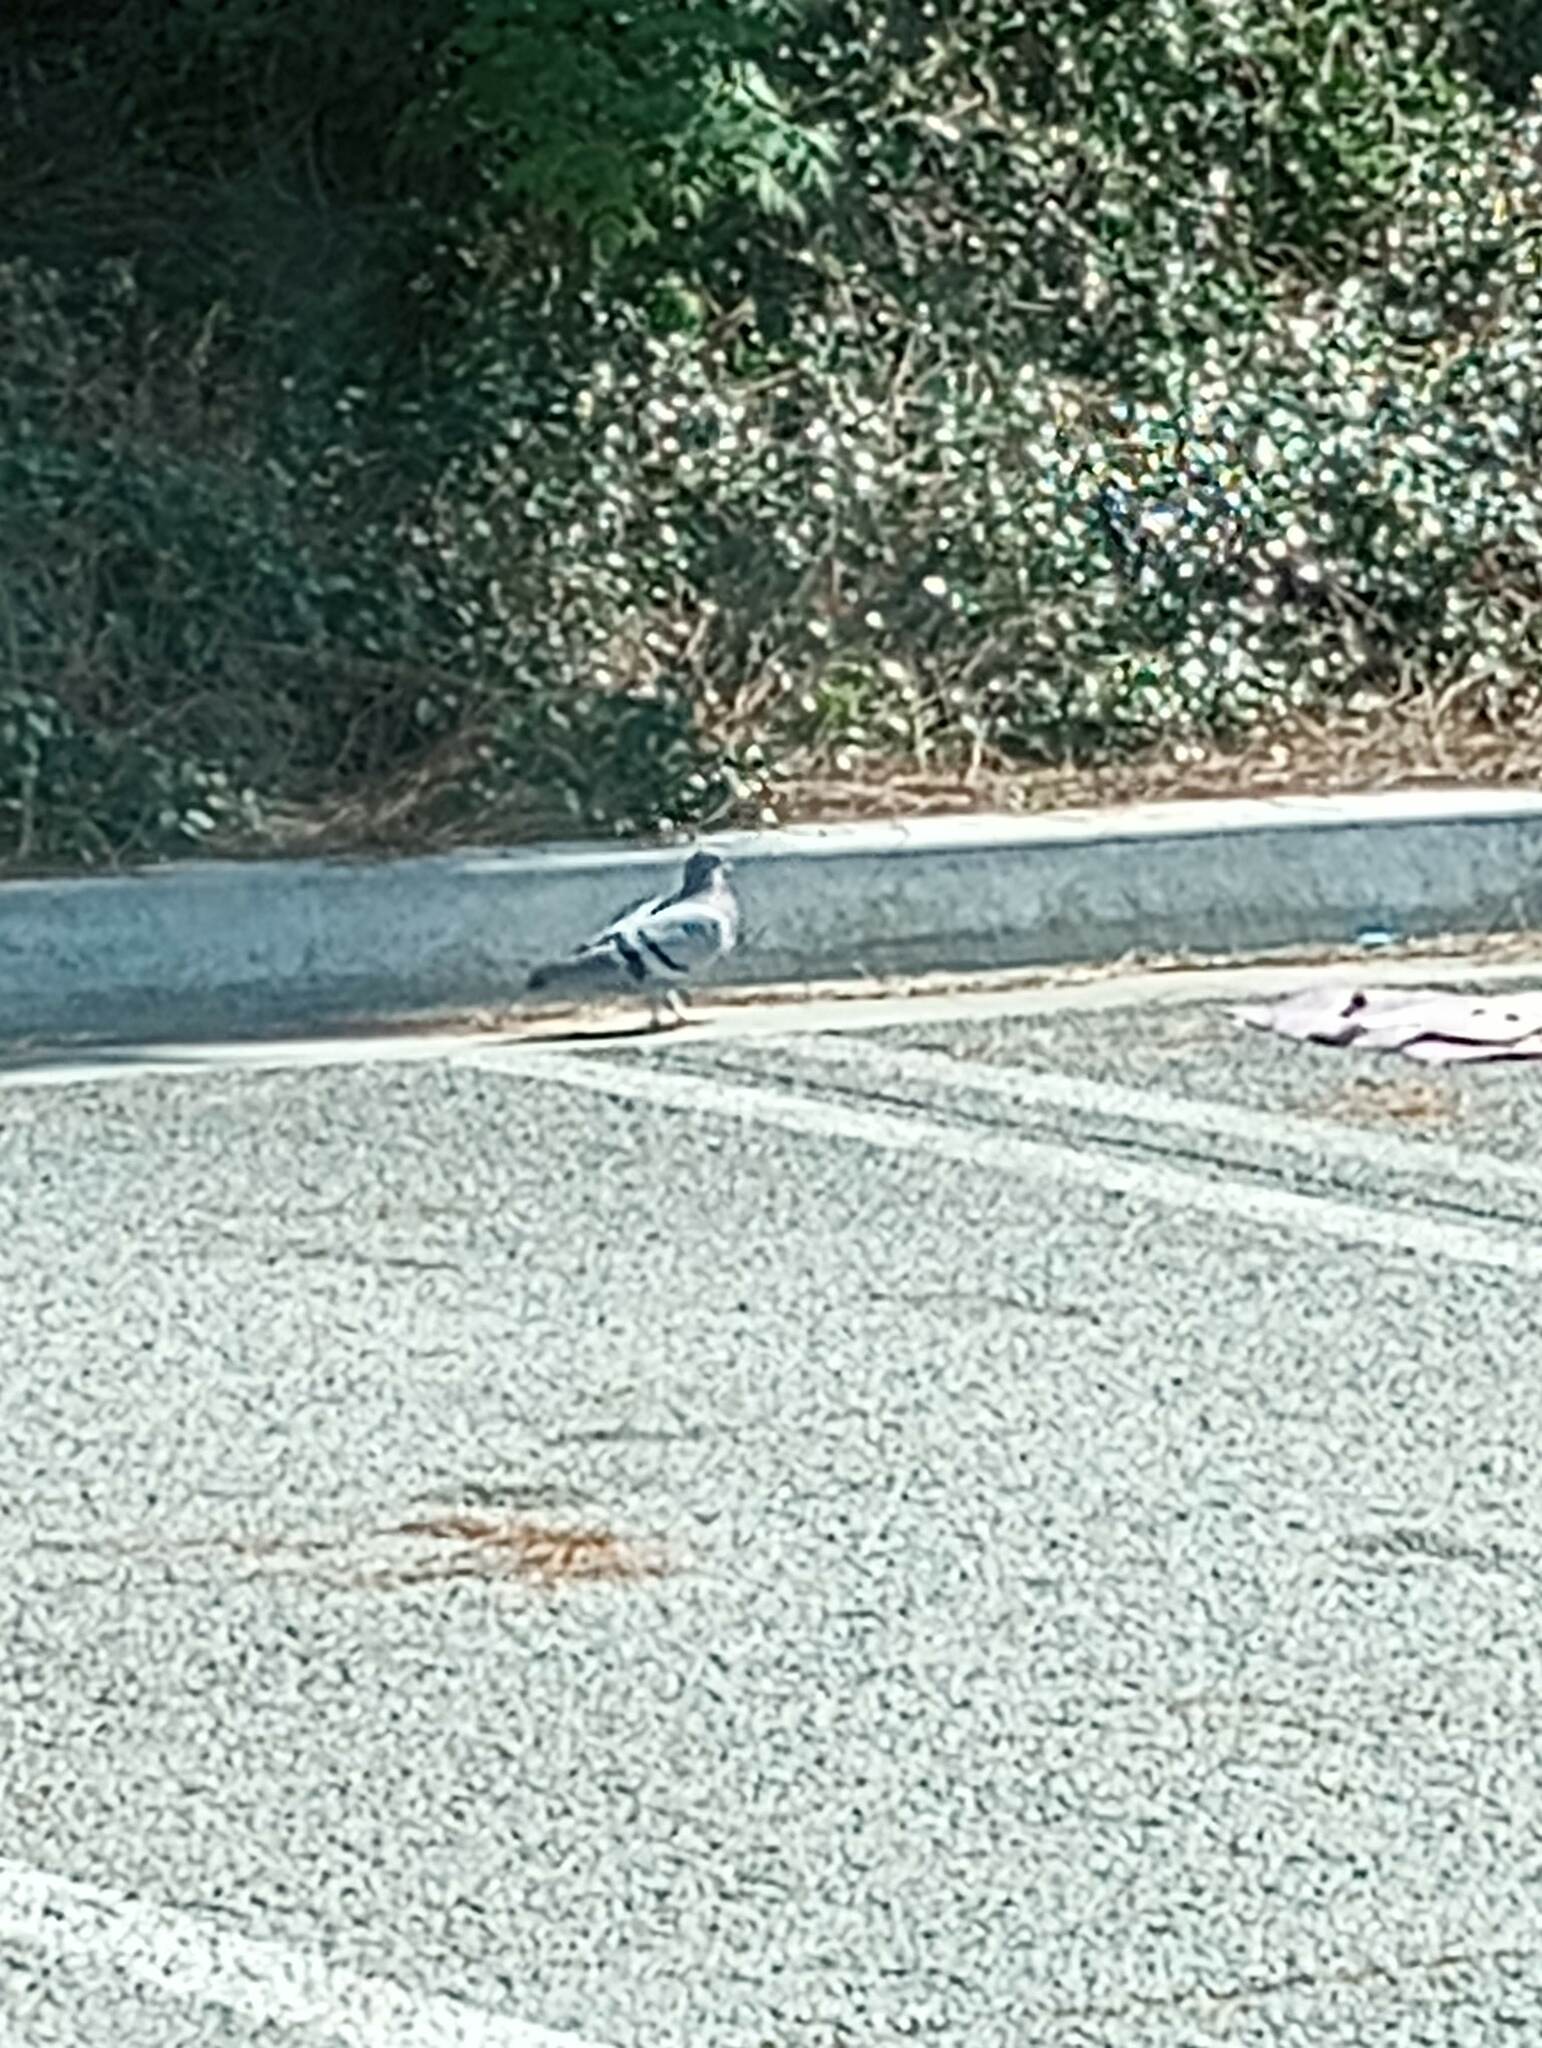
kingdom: Animalia
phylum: Chordata
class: Aves
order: Columbiformes
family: Columbidae
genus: Columba
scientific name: Columba livia
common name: Rock pigeon
